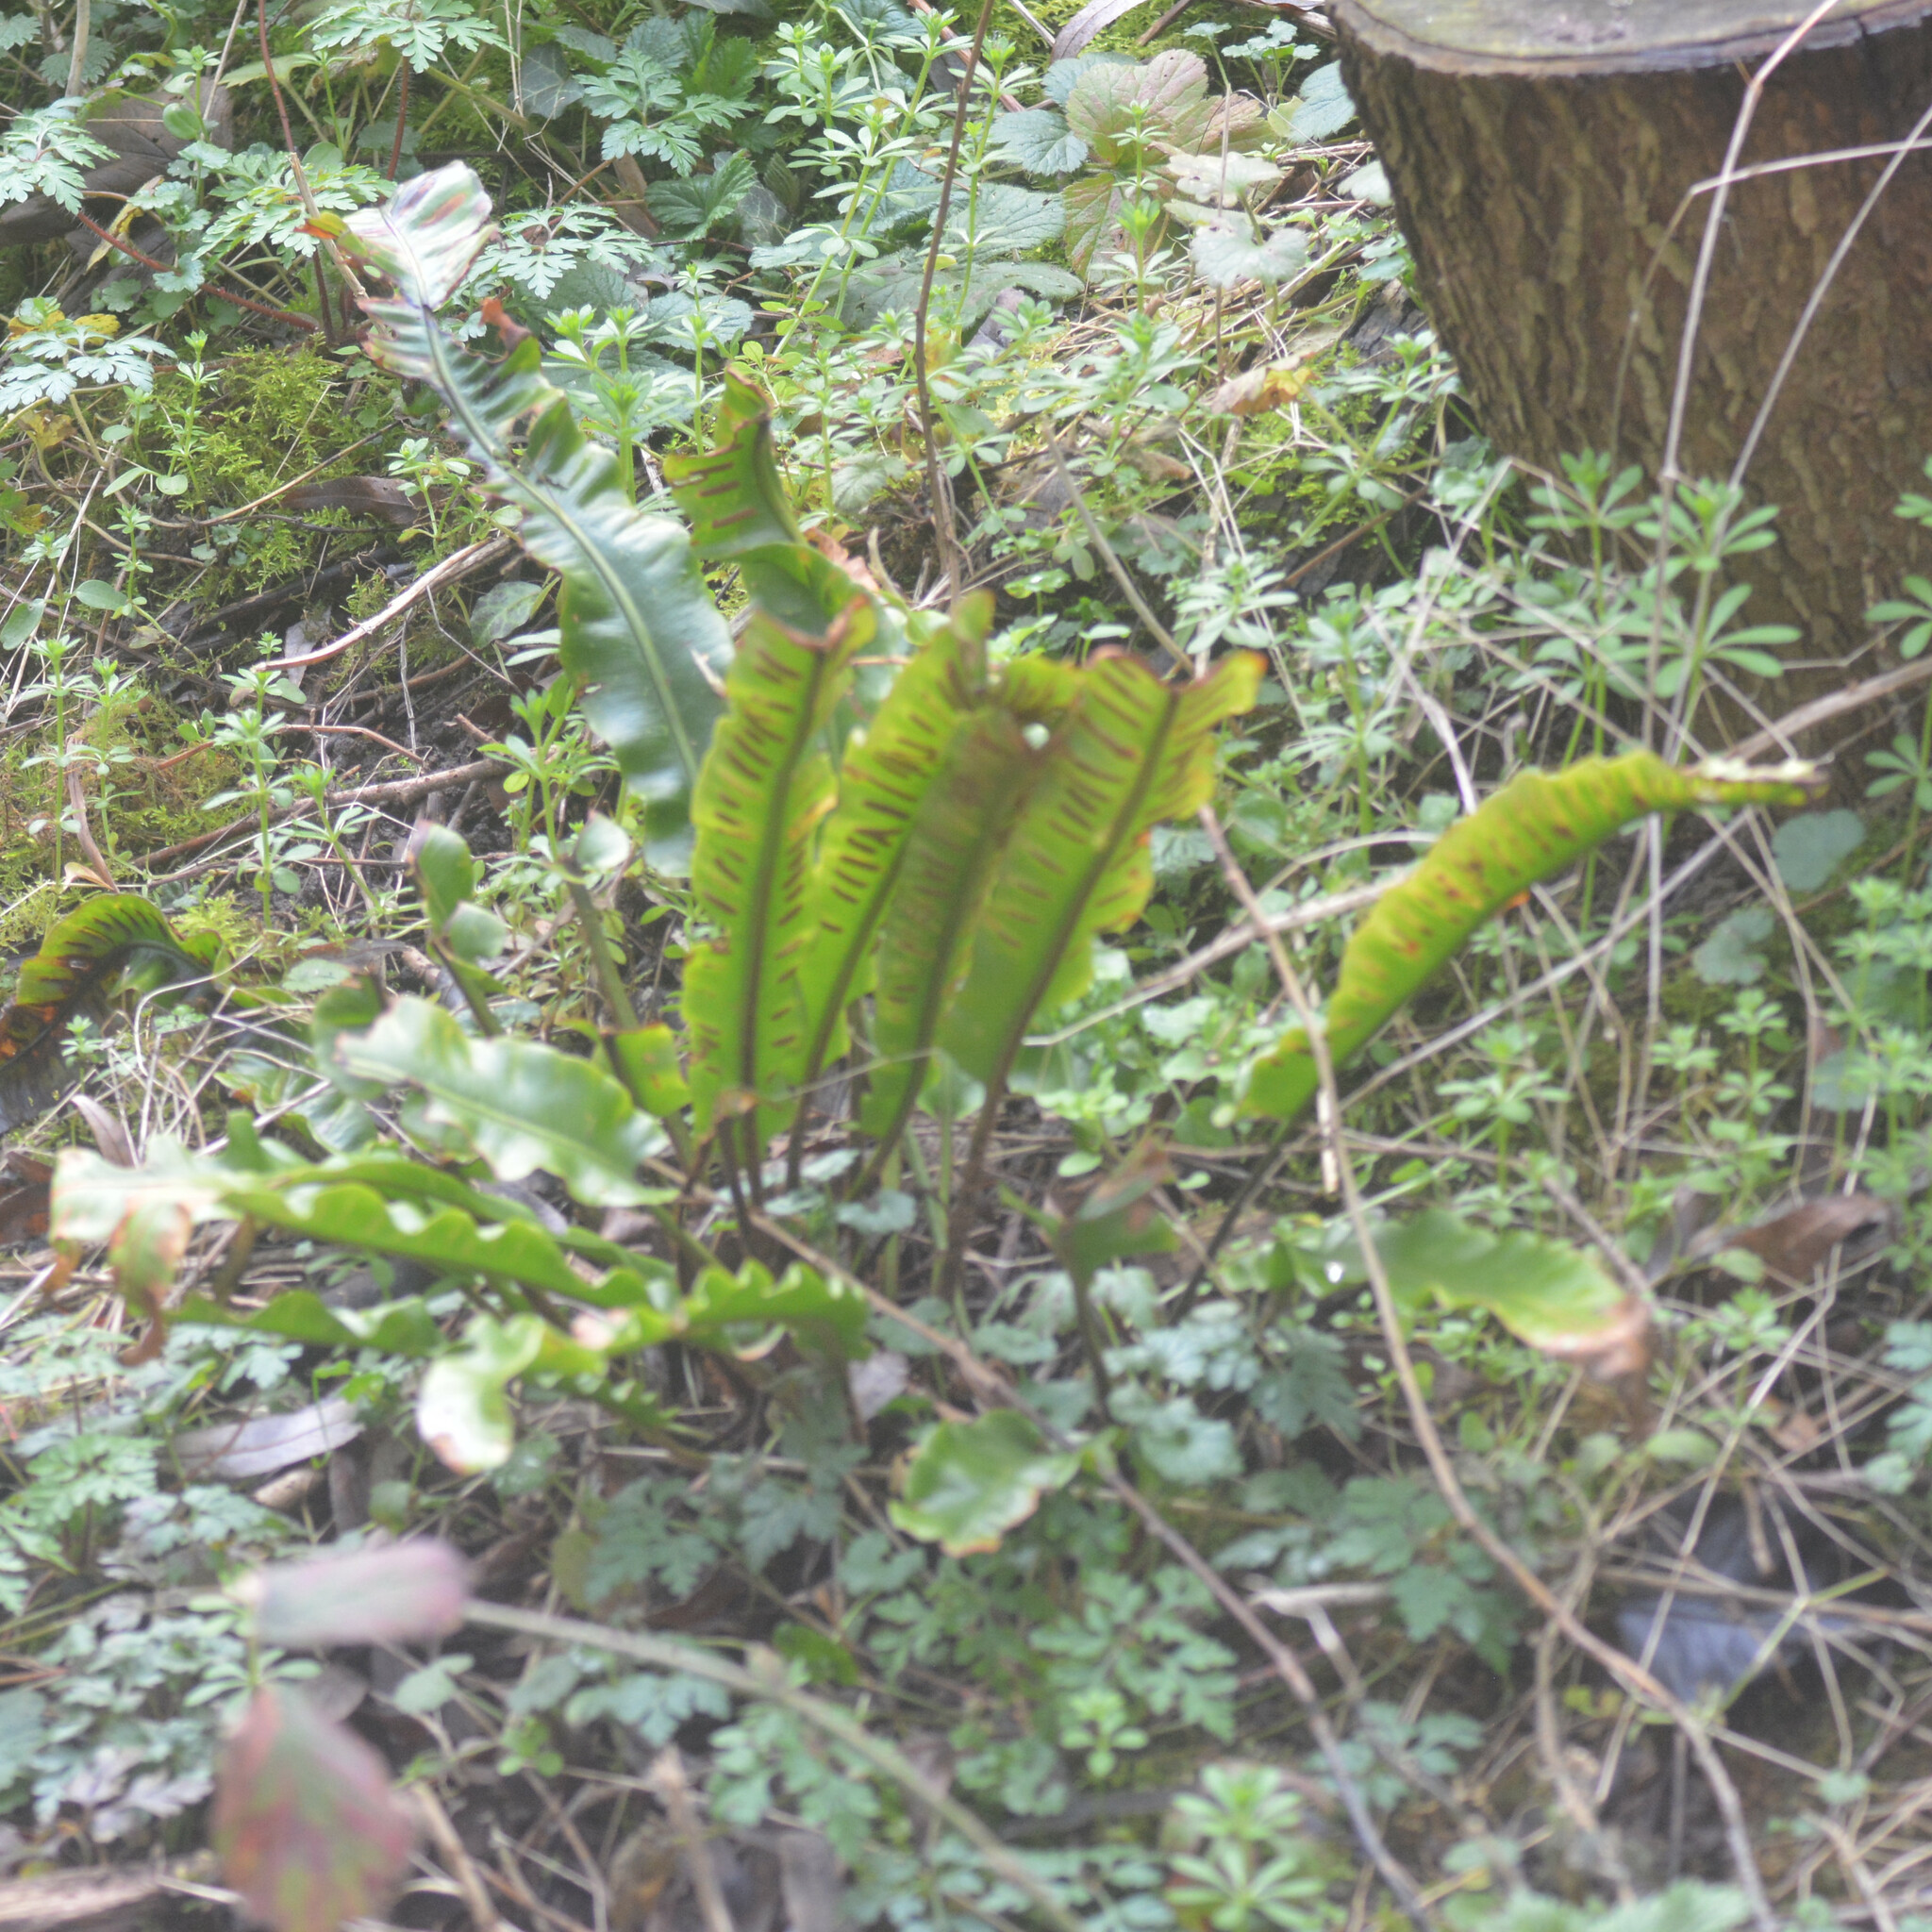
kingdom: Plantae
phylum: Tracheophyta
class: Polypodiopsida
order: Polypodiales
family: Aspleniaceae
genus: Asplenium
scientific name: Asplenium scolopendrium
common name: Hart's-tongue fern
